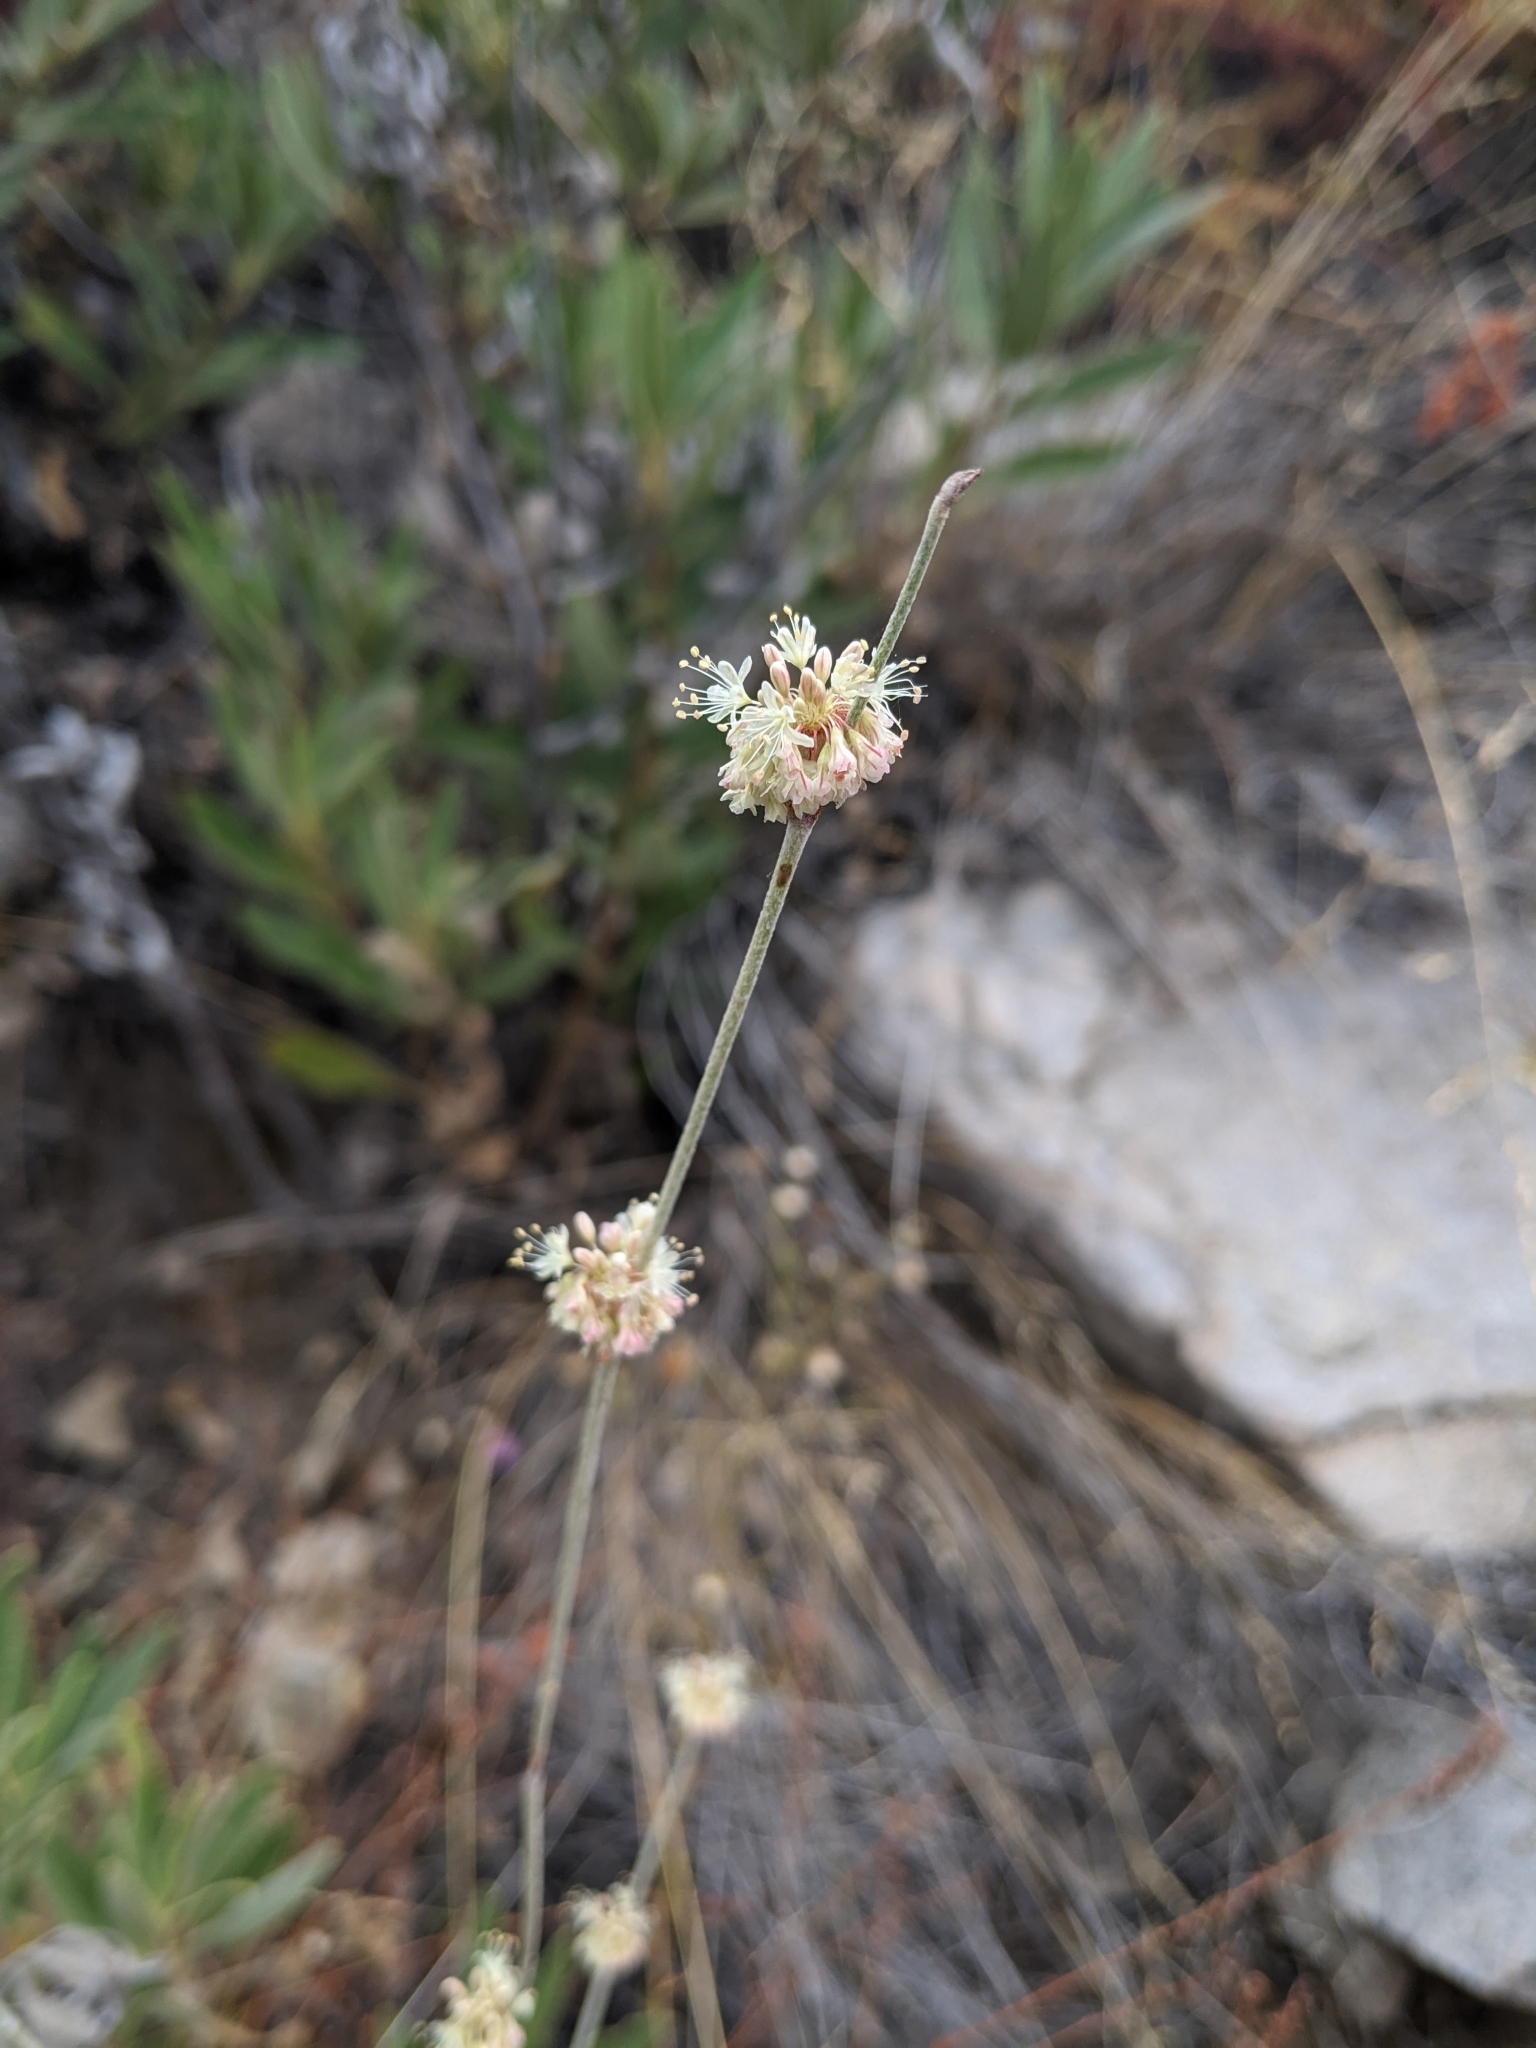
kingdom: Plantae
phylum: Tracheophyta
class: Magnoliopsida
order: Caryophyllales
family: Polygonaceae
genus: Eriogonum
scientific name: Eriogonum elongatum
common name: Long-stem wild buckwheat
